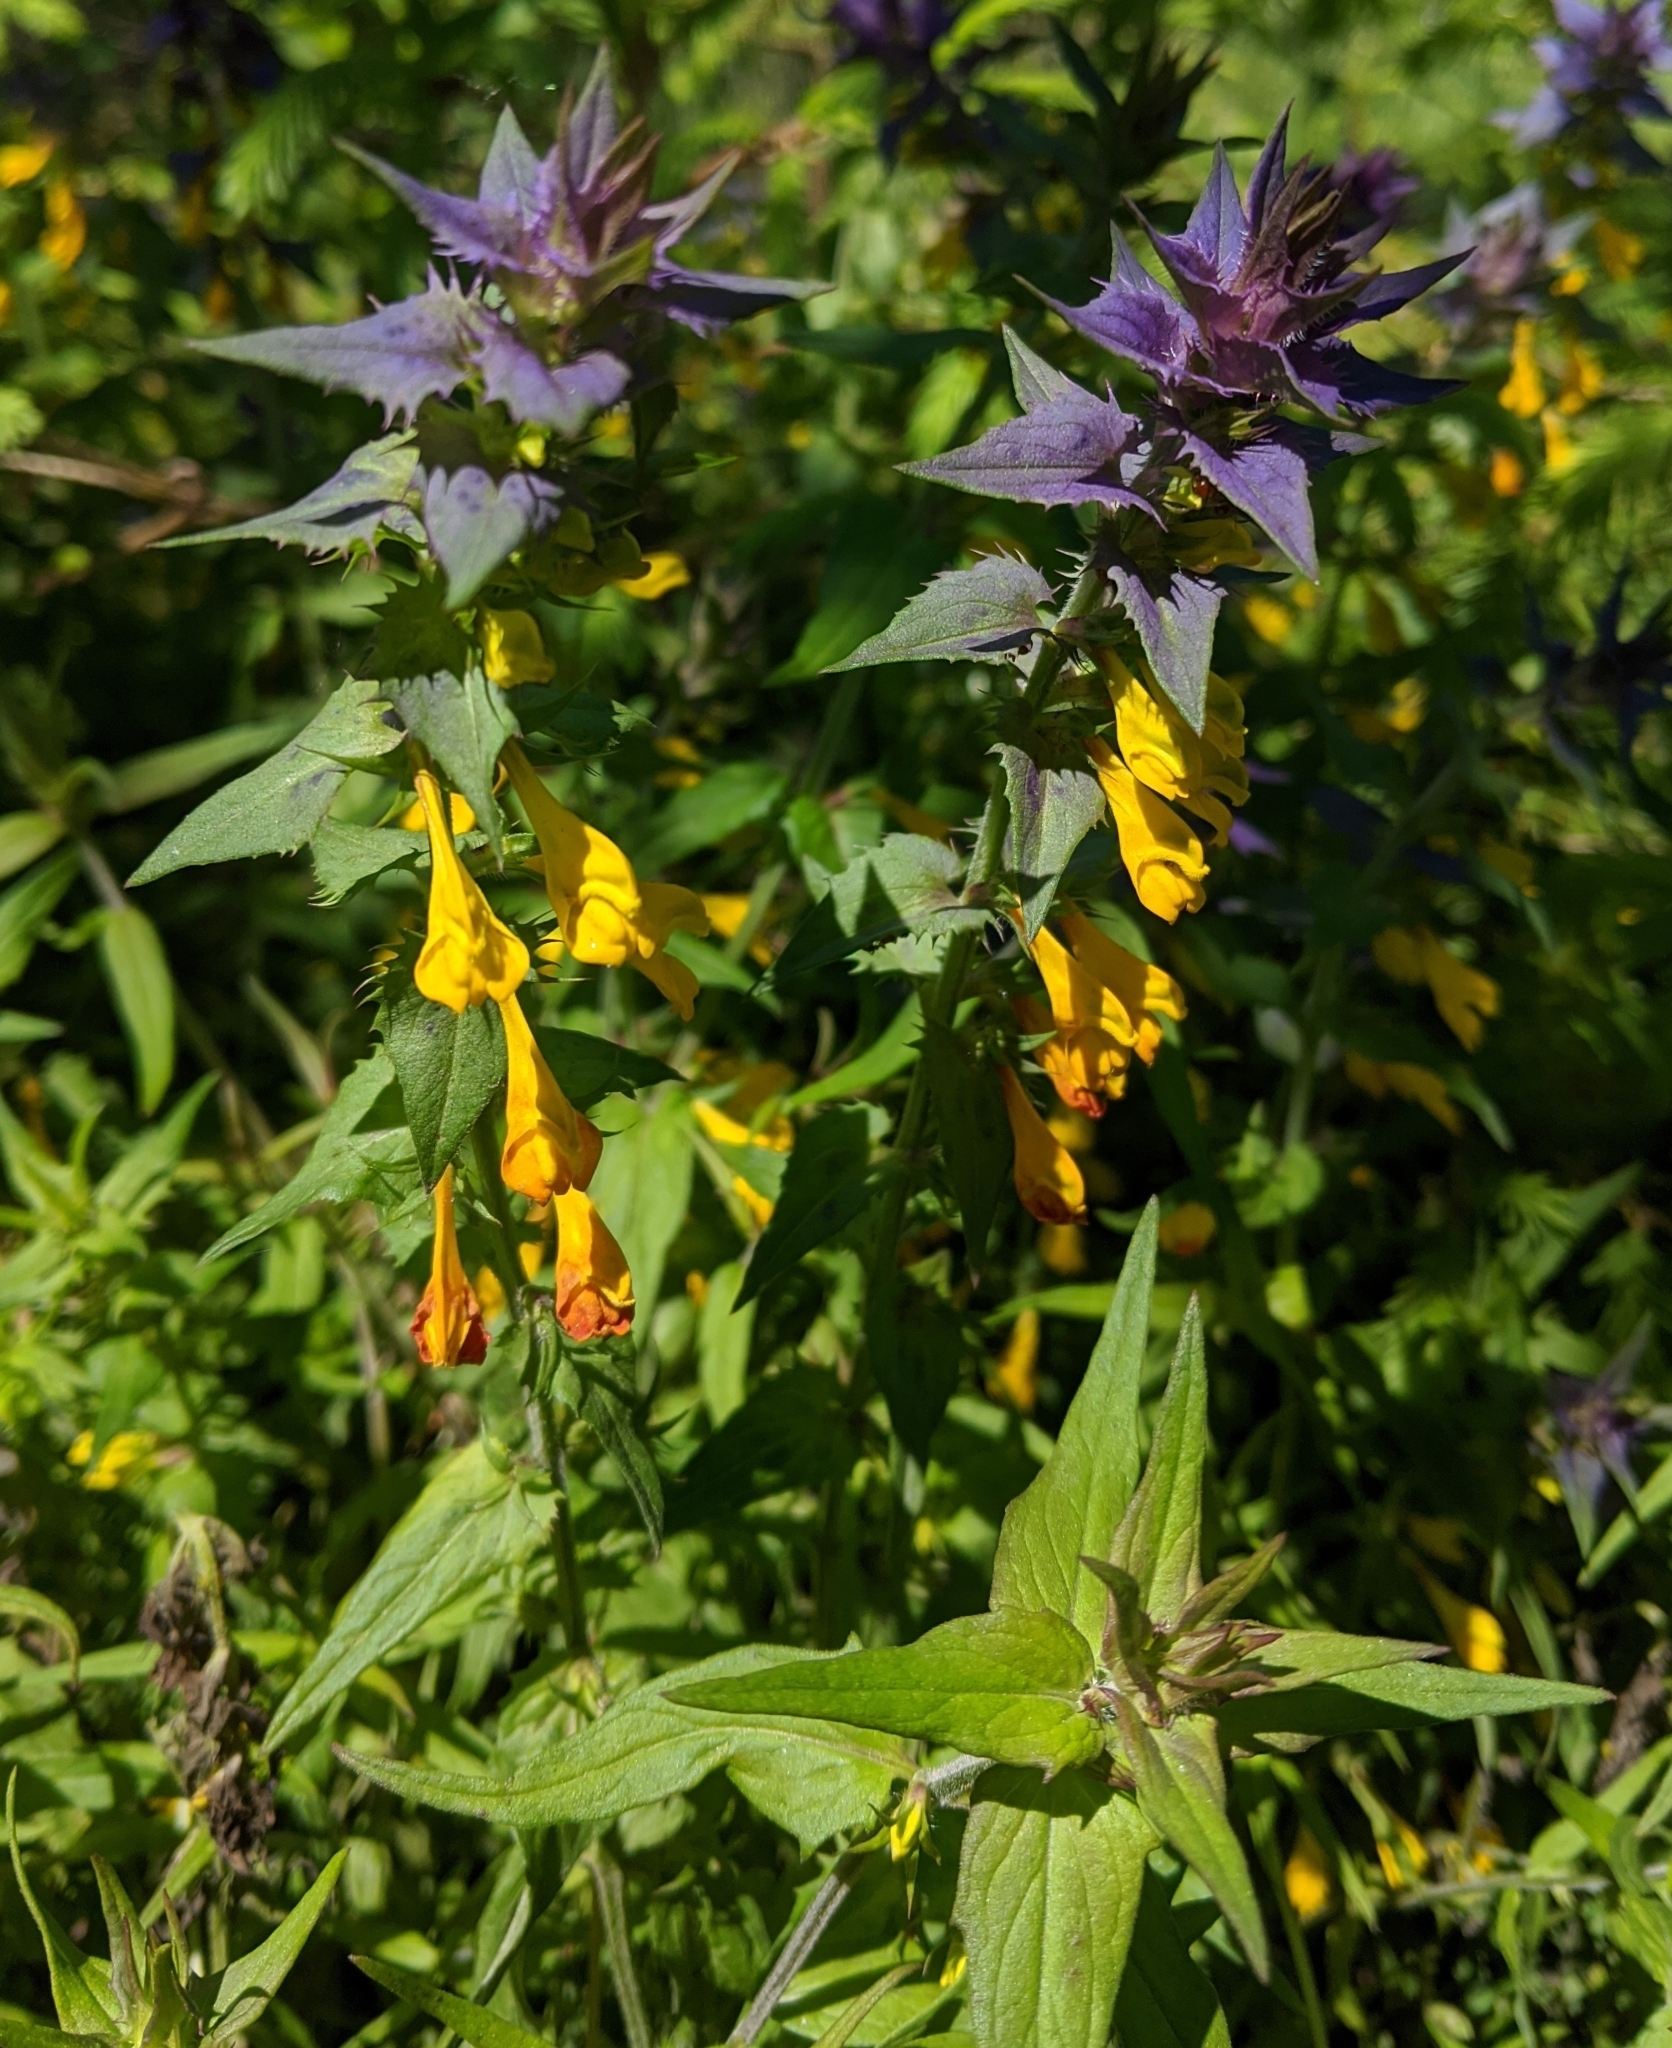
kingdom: Plantae
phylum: Tracheophyta
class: Magnoliopsida
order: Lamiales
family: Orobanchaceae
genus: Melampyrum
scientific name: Melampyrum nemorosum
